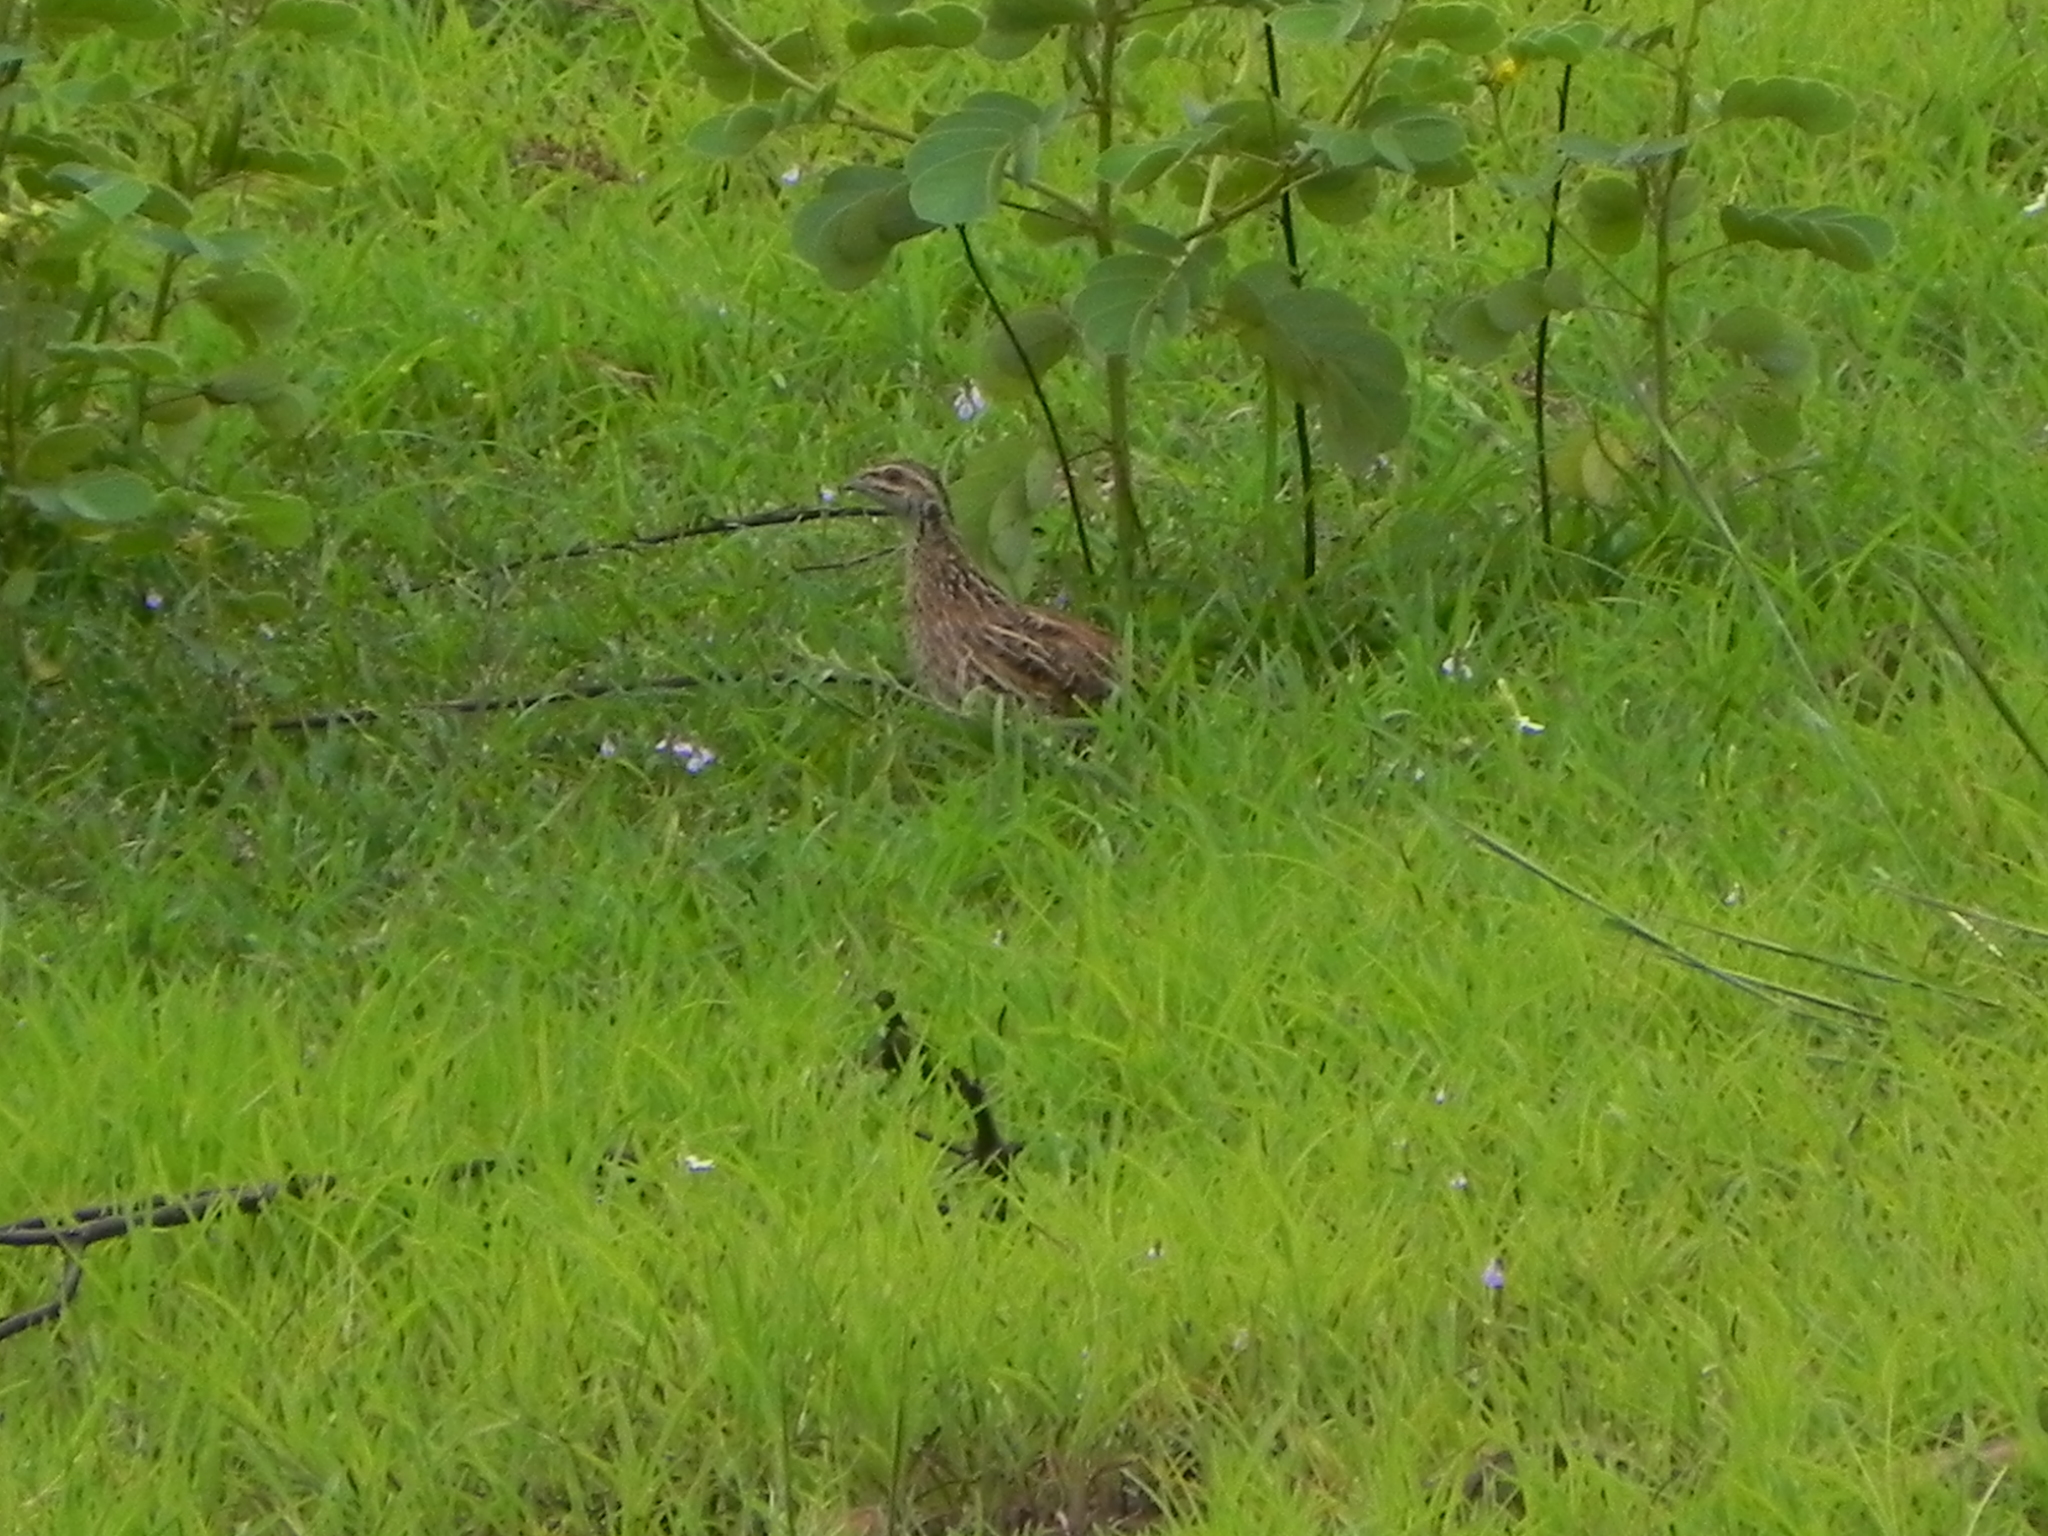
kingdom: Animalia
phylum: Chordata
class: Aves
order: Galliformes
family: Phasianidae
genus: Coturnix
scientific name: Coturnix coromandelica
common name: Rain quail
